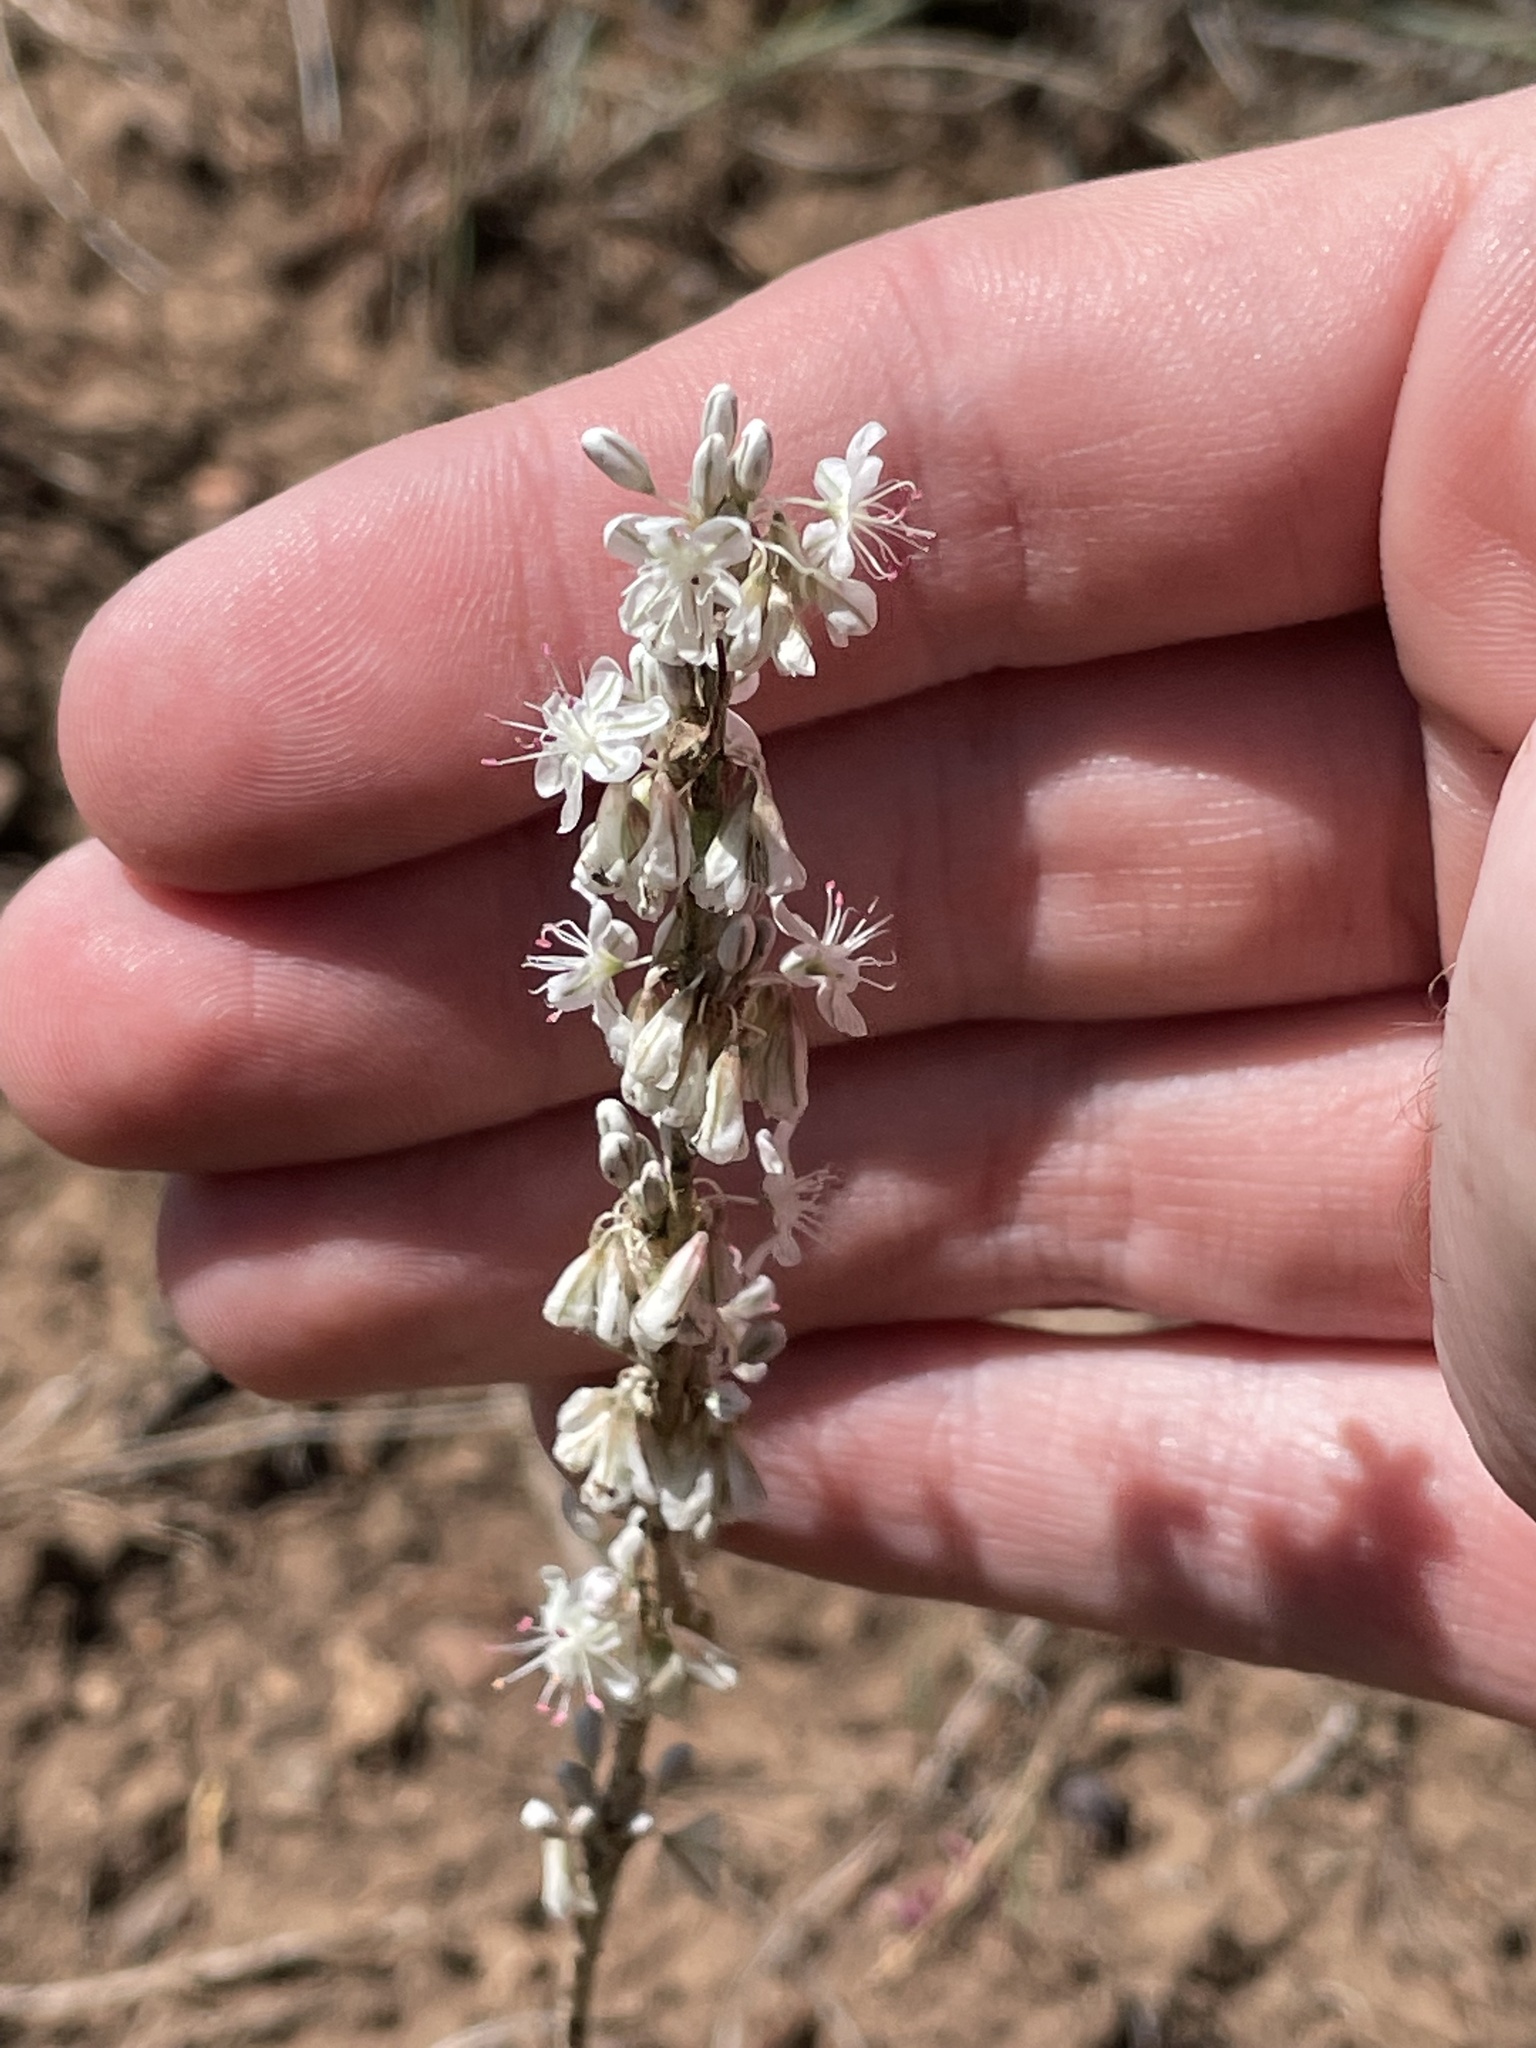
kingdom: Plantae
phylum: Tracheophyta
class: Magnoliopsida
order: Caryophyllales
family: Polygonaceae
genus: Eriogonum
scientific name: Eriogonum racemosum
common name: Redroot wild buckwheat
